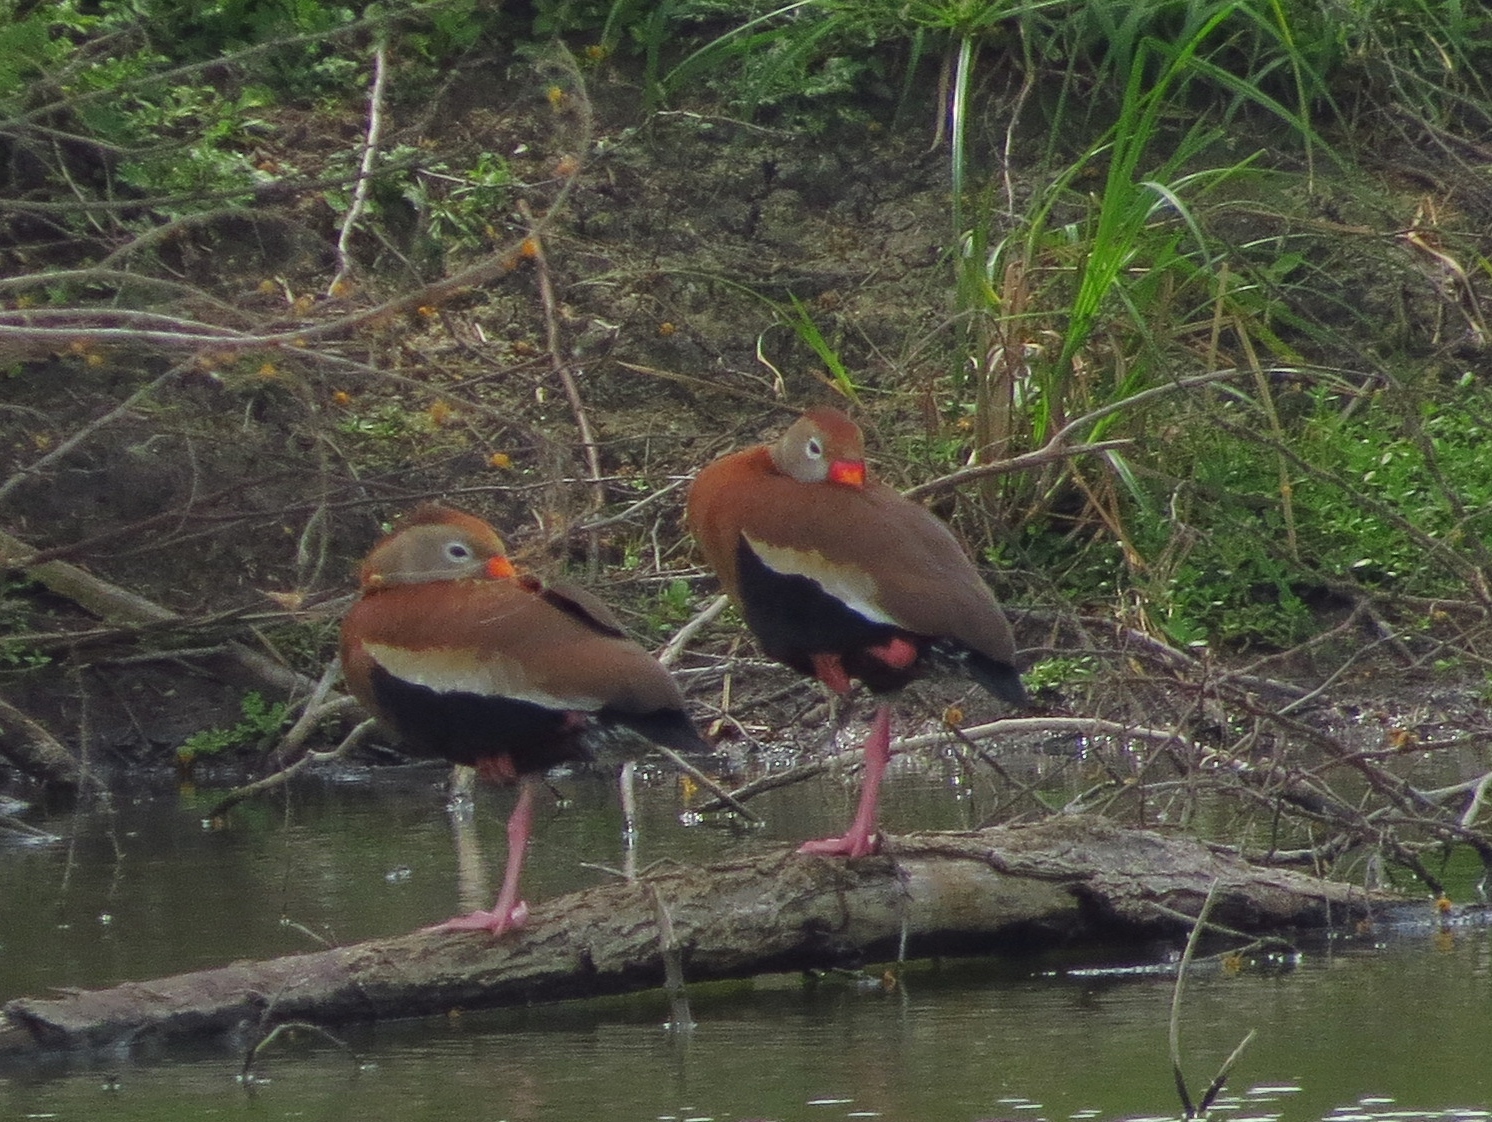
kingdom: Animalia
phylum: Chordata
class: Aves
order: Anseriformes
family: Anatidae
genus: Dendrocygna
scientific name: Dendrocygna autumnalis
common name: Black-bellied whistling duck
